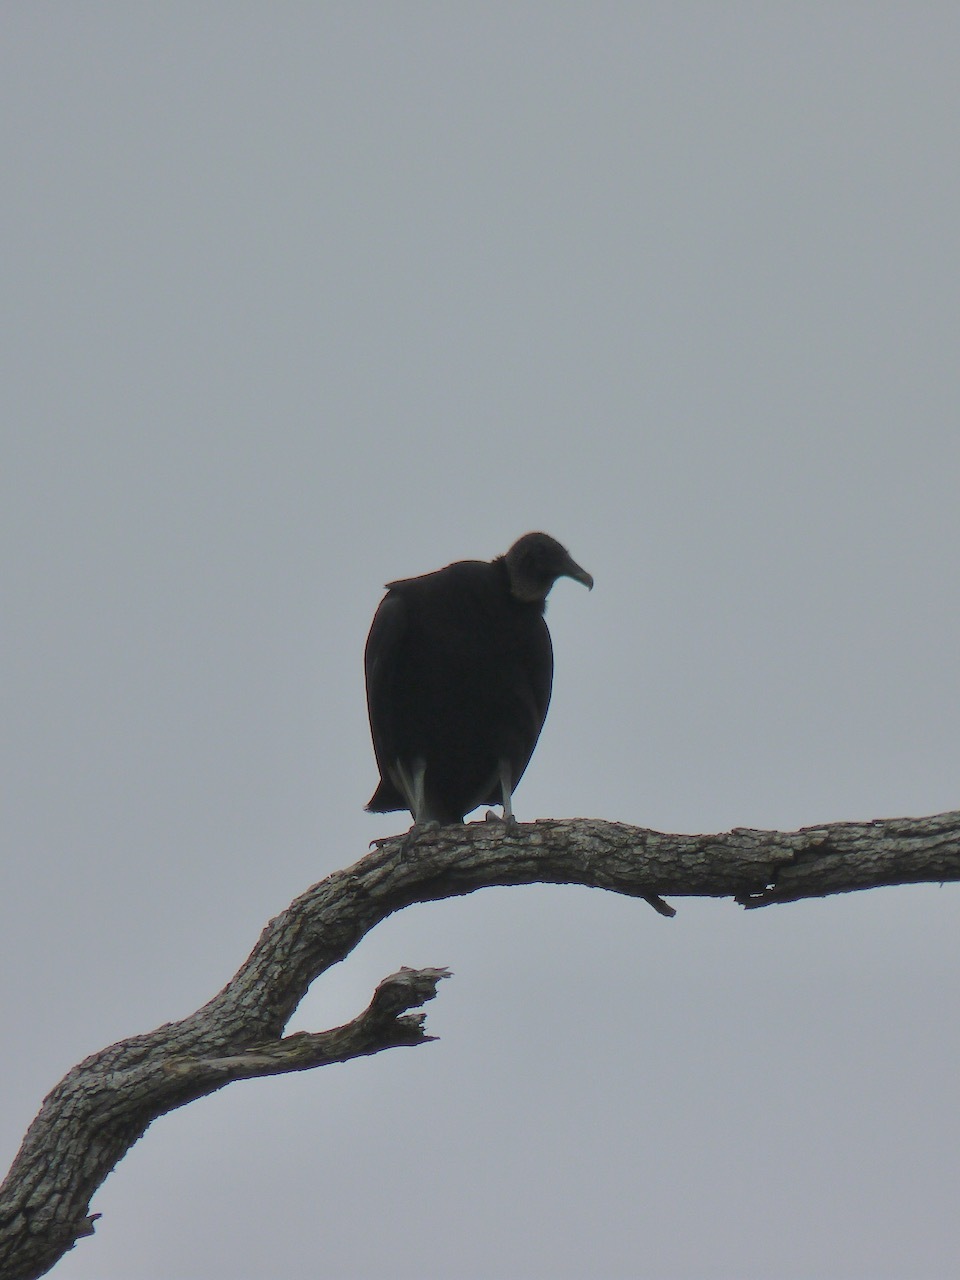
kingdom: Animalia
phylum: Chordata
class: Aves
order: Accipitriformes
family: Cathartidae
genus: Coragyps
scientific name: Coragyps atratus
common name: Black vulture
